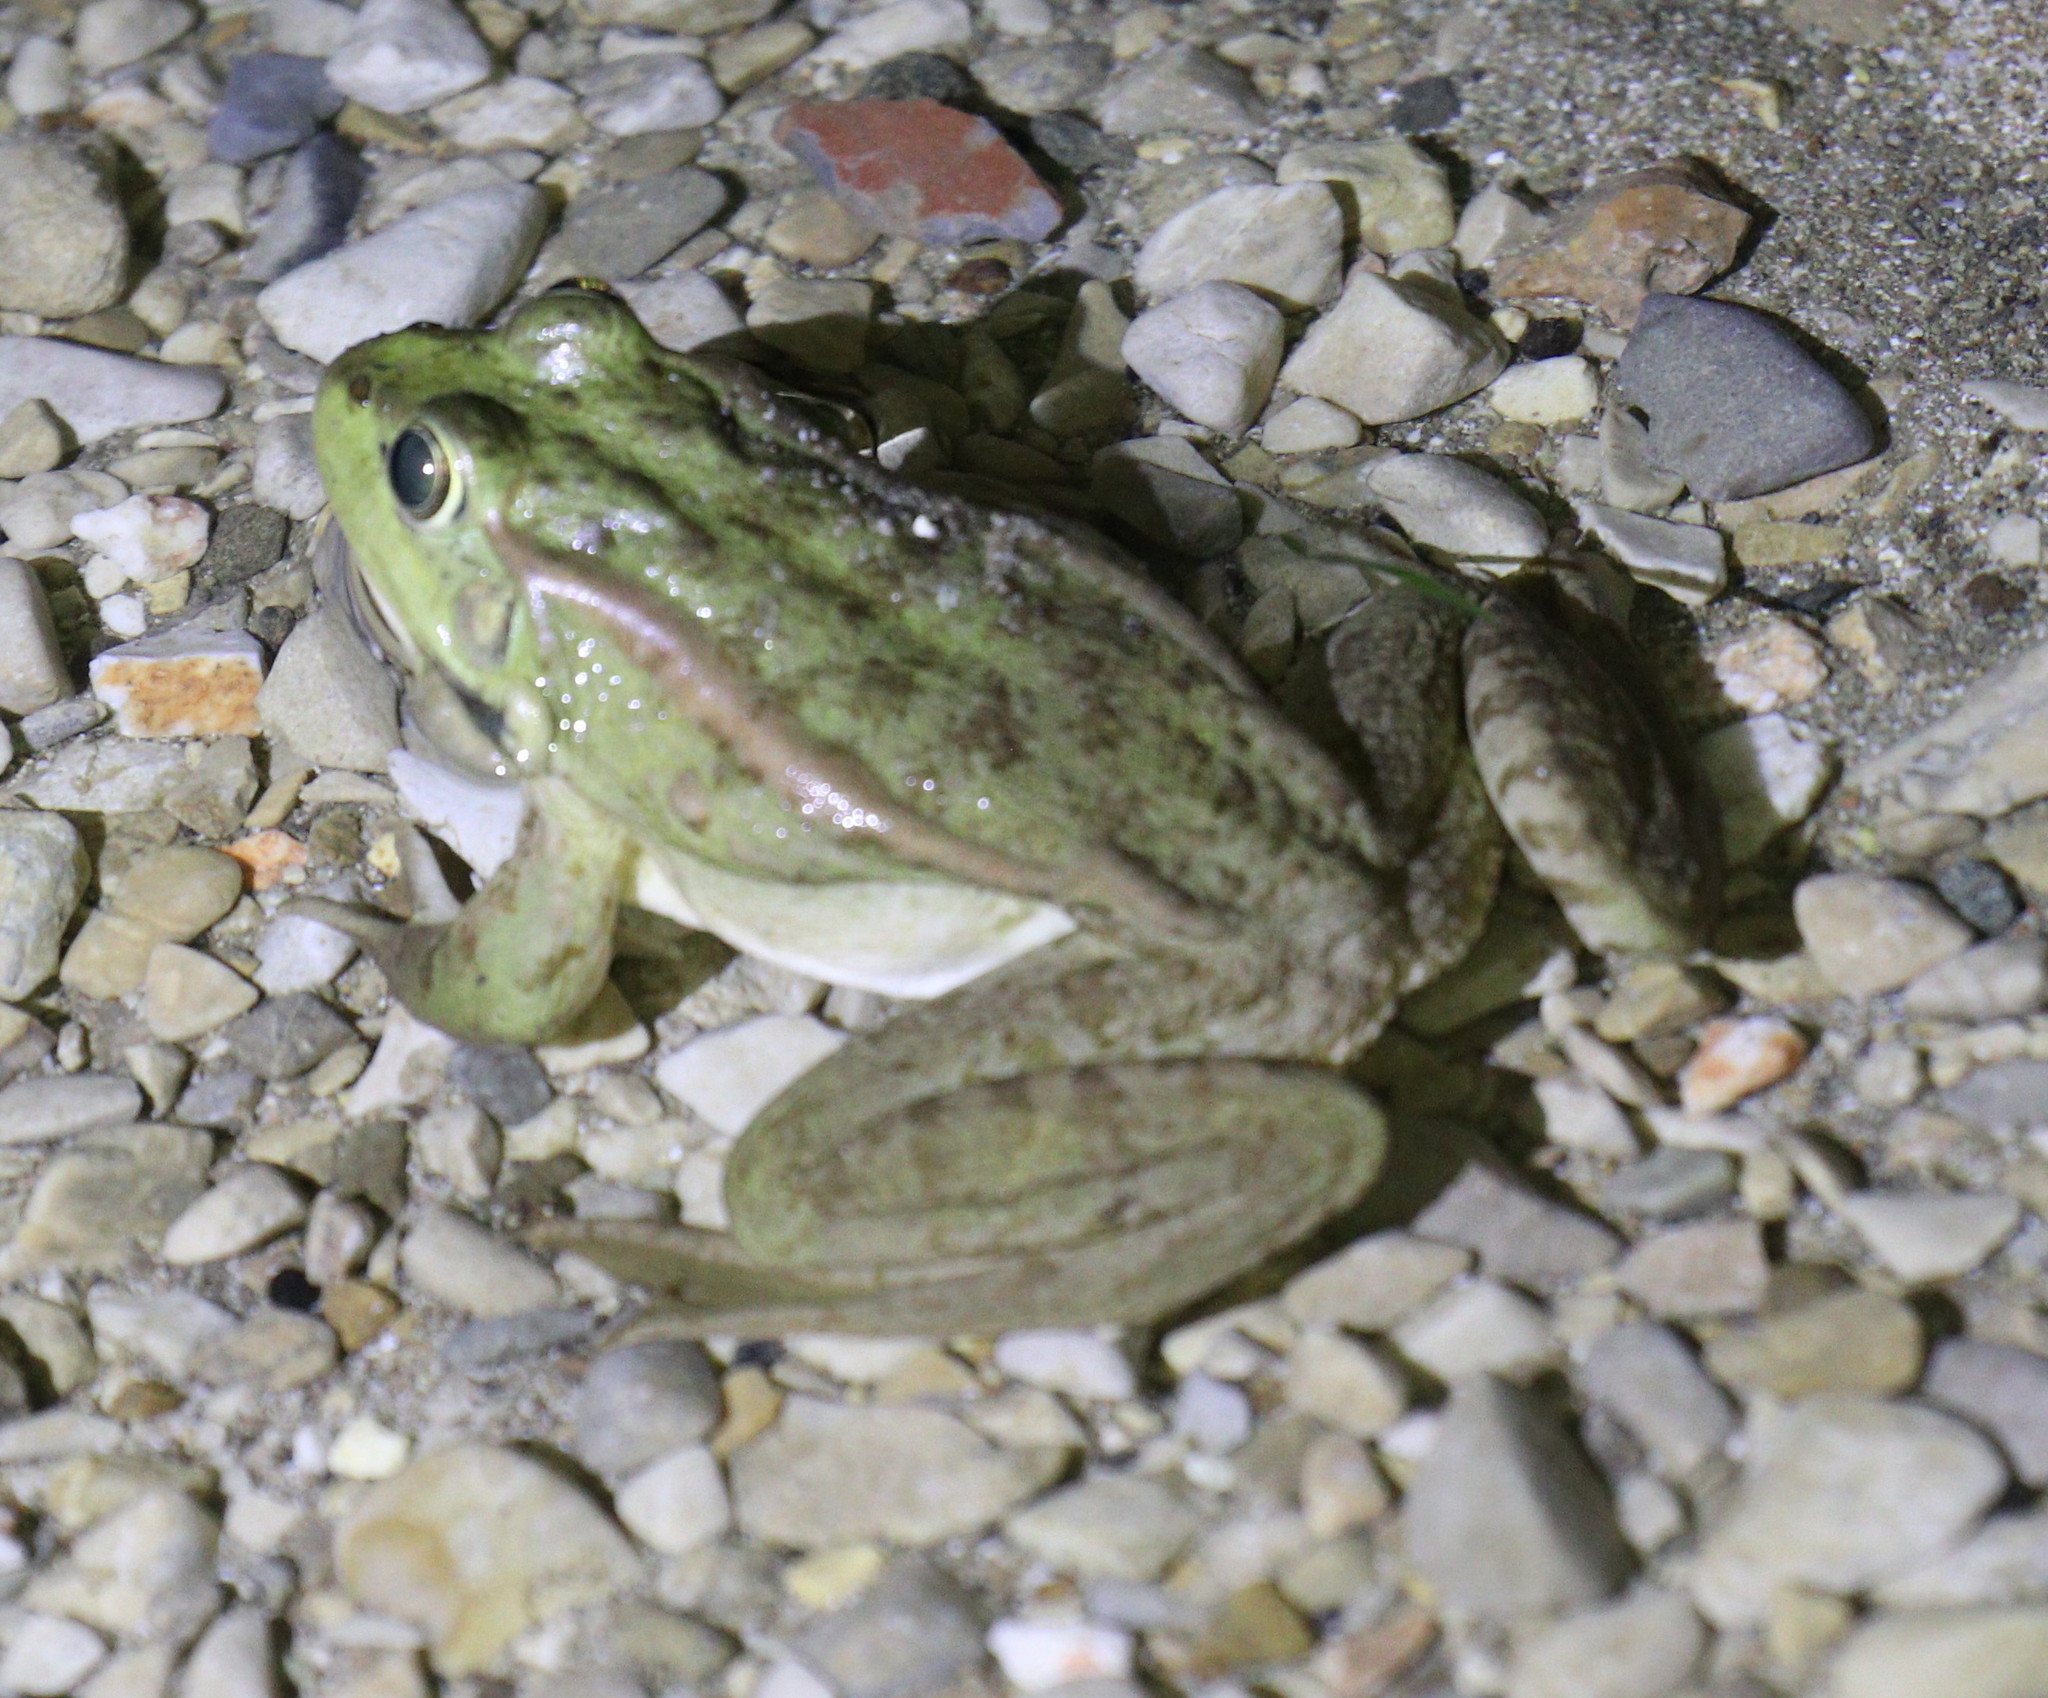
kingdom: Animalia
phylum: Chordata
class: Amphibia
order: Anura
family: Ranidae
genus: Pelophylax
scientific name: Pelophylax ridibundus
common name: Marsh frog
